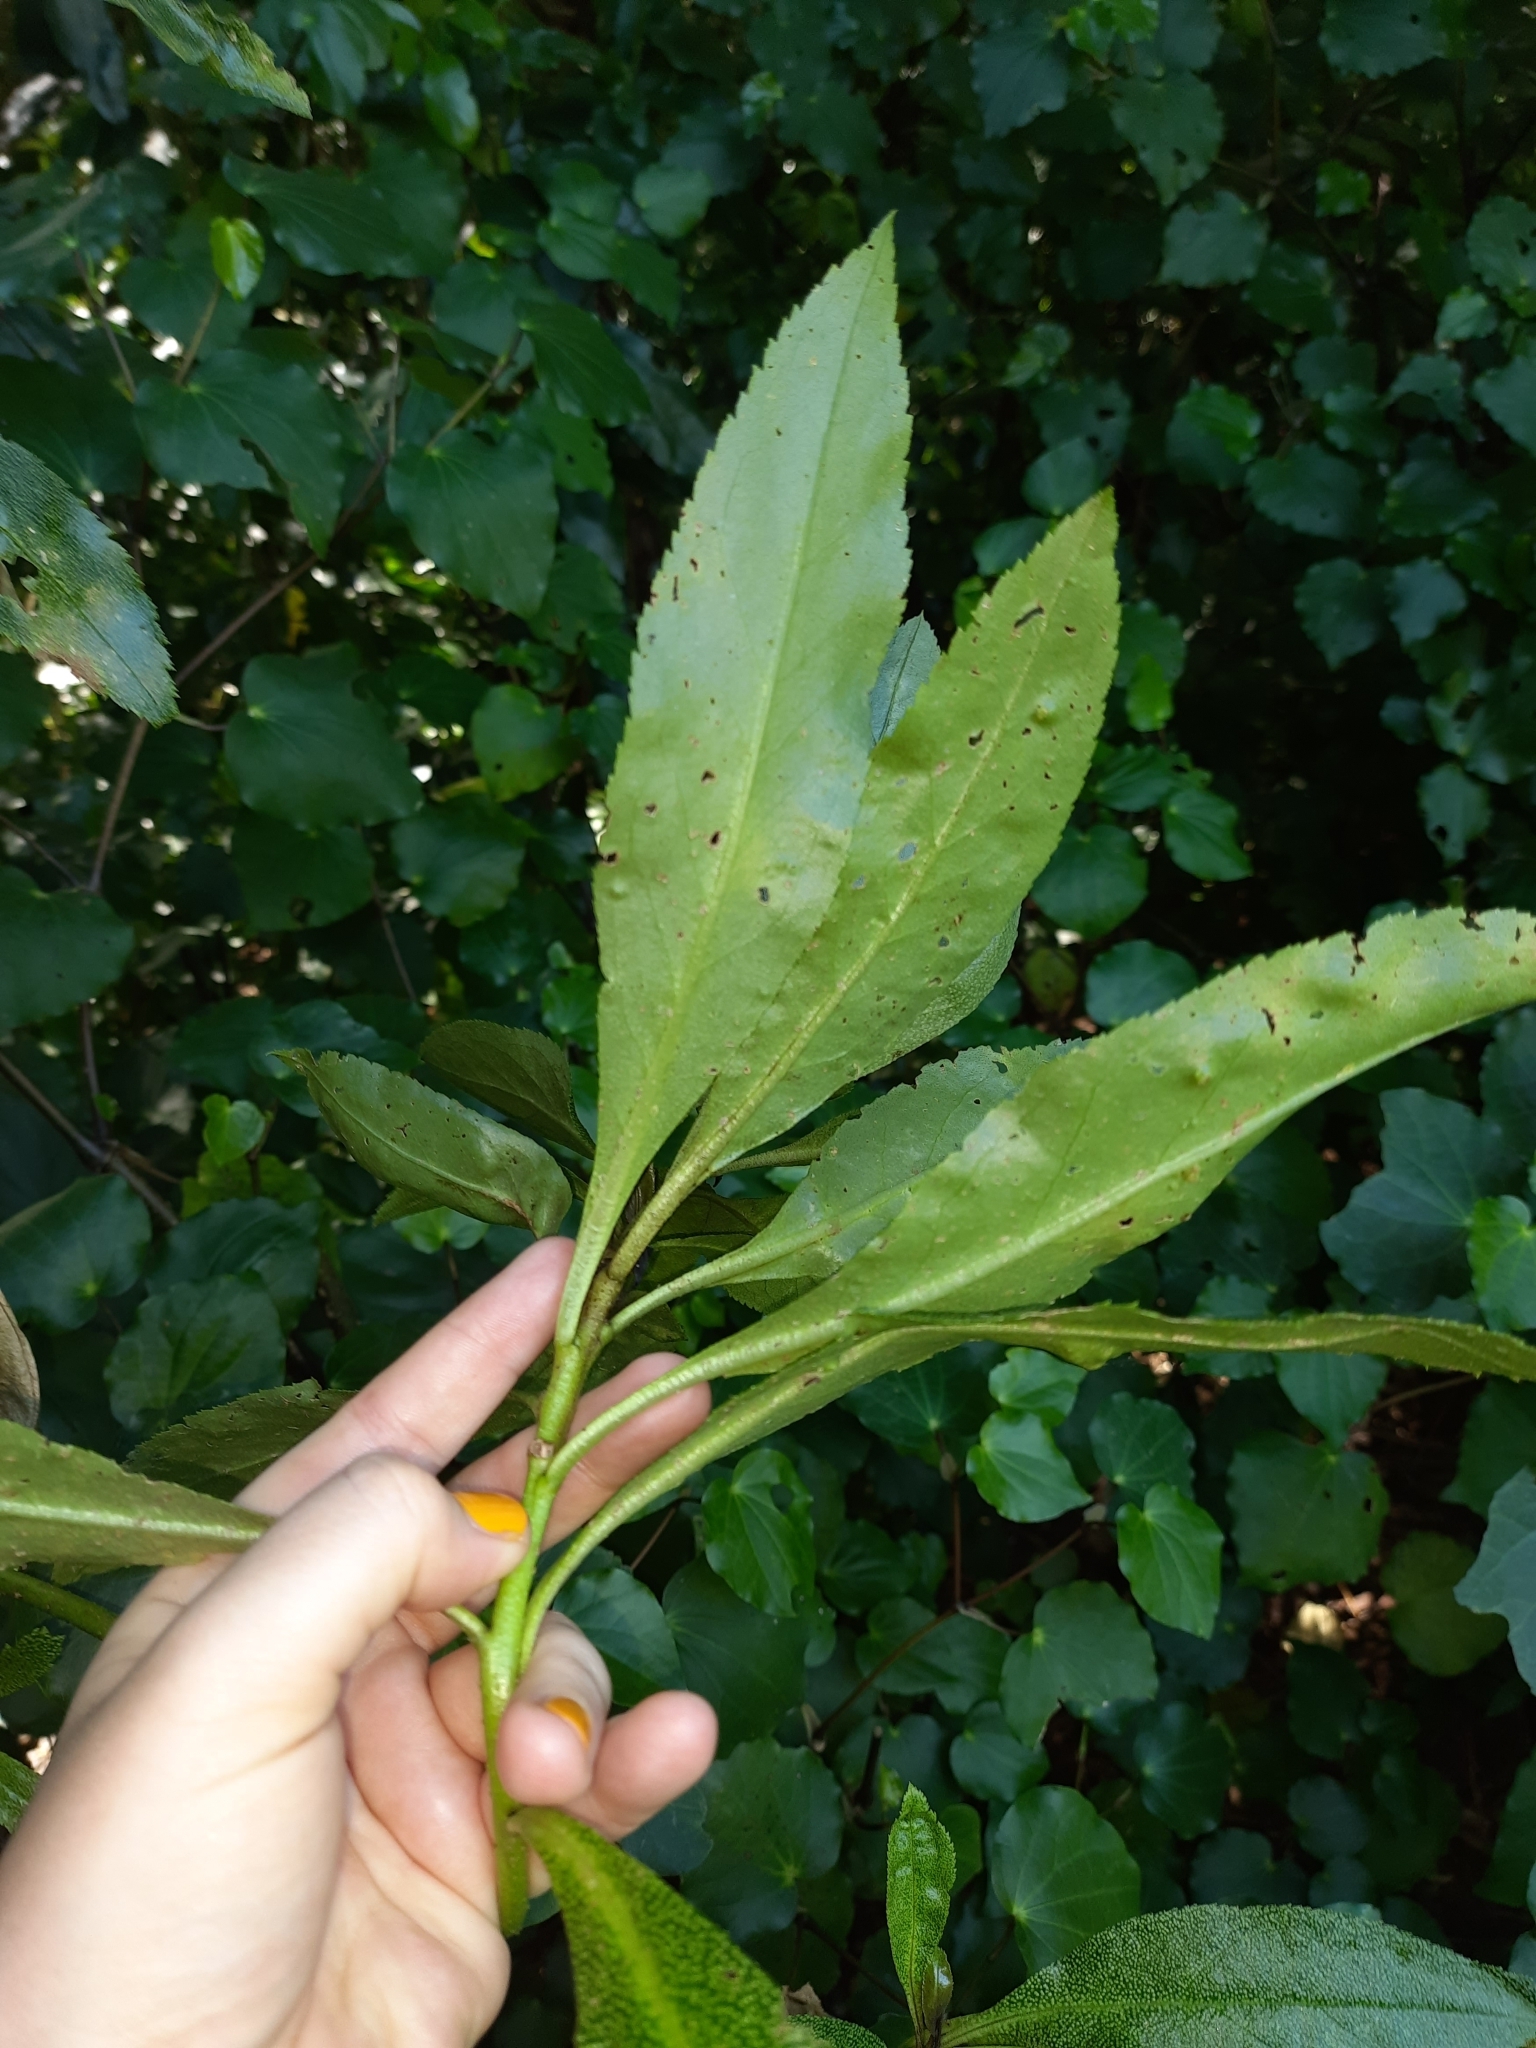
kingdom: Plantae
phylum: Tracheophyta
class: Magnoliopsida
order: Lamiales
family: Scrophulariaceae
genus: Myoporum
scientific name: Myoporum laetum
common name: Ngaio tree
